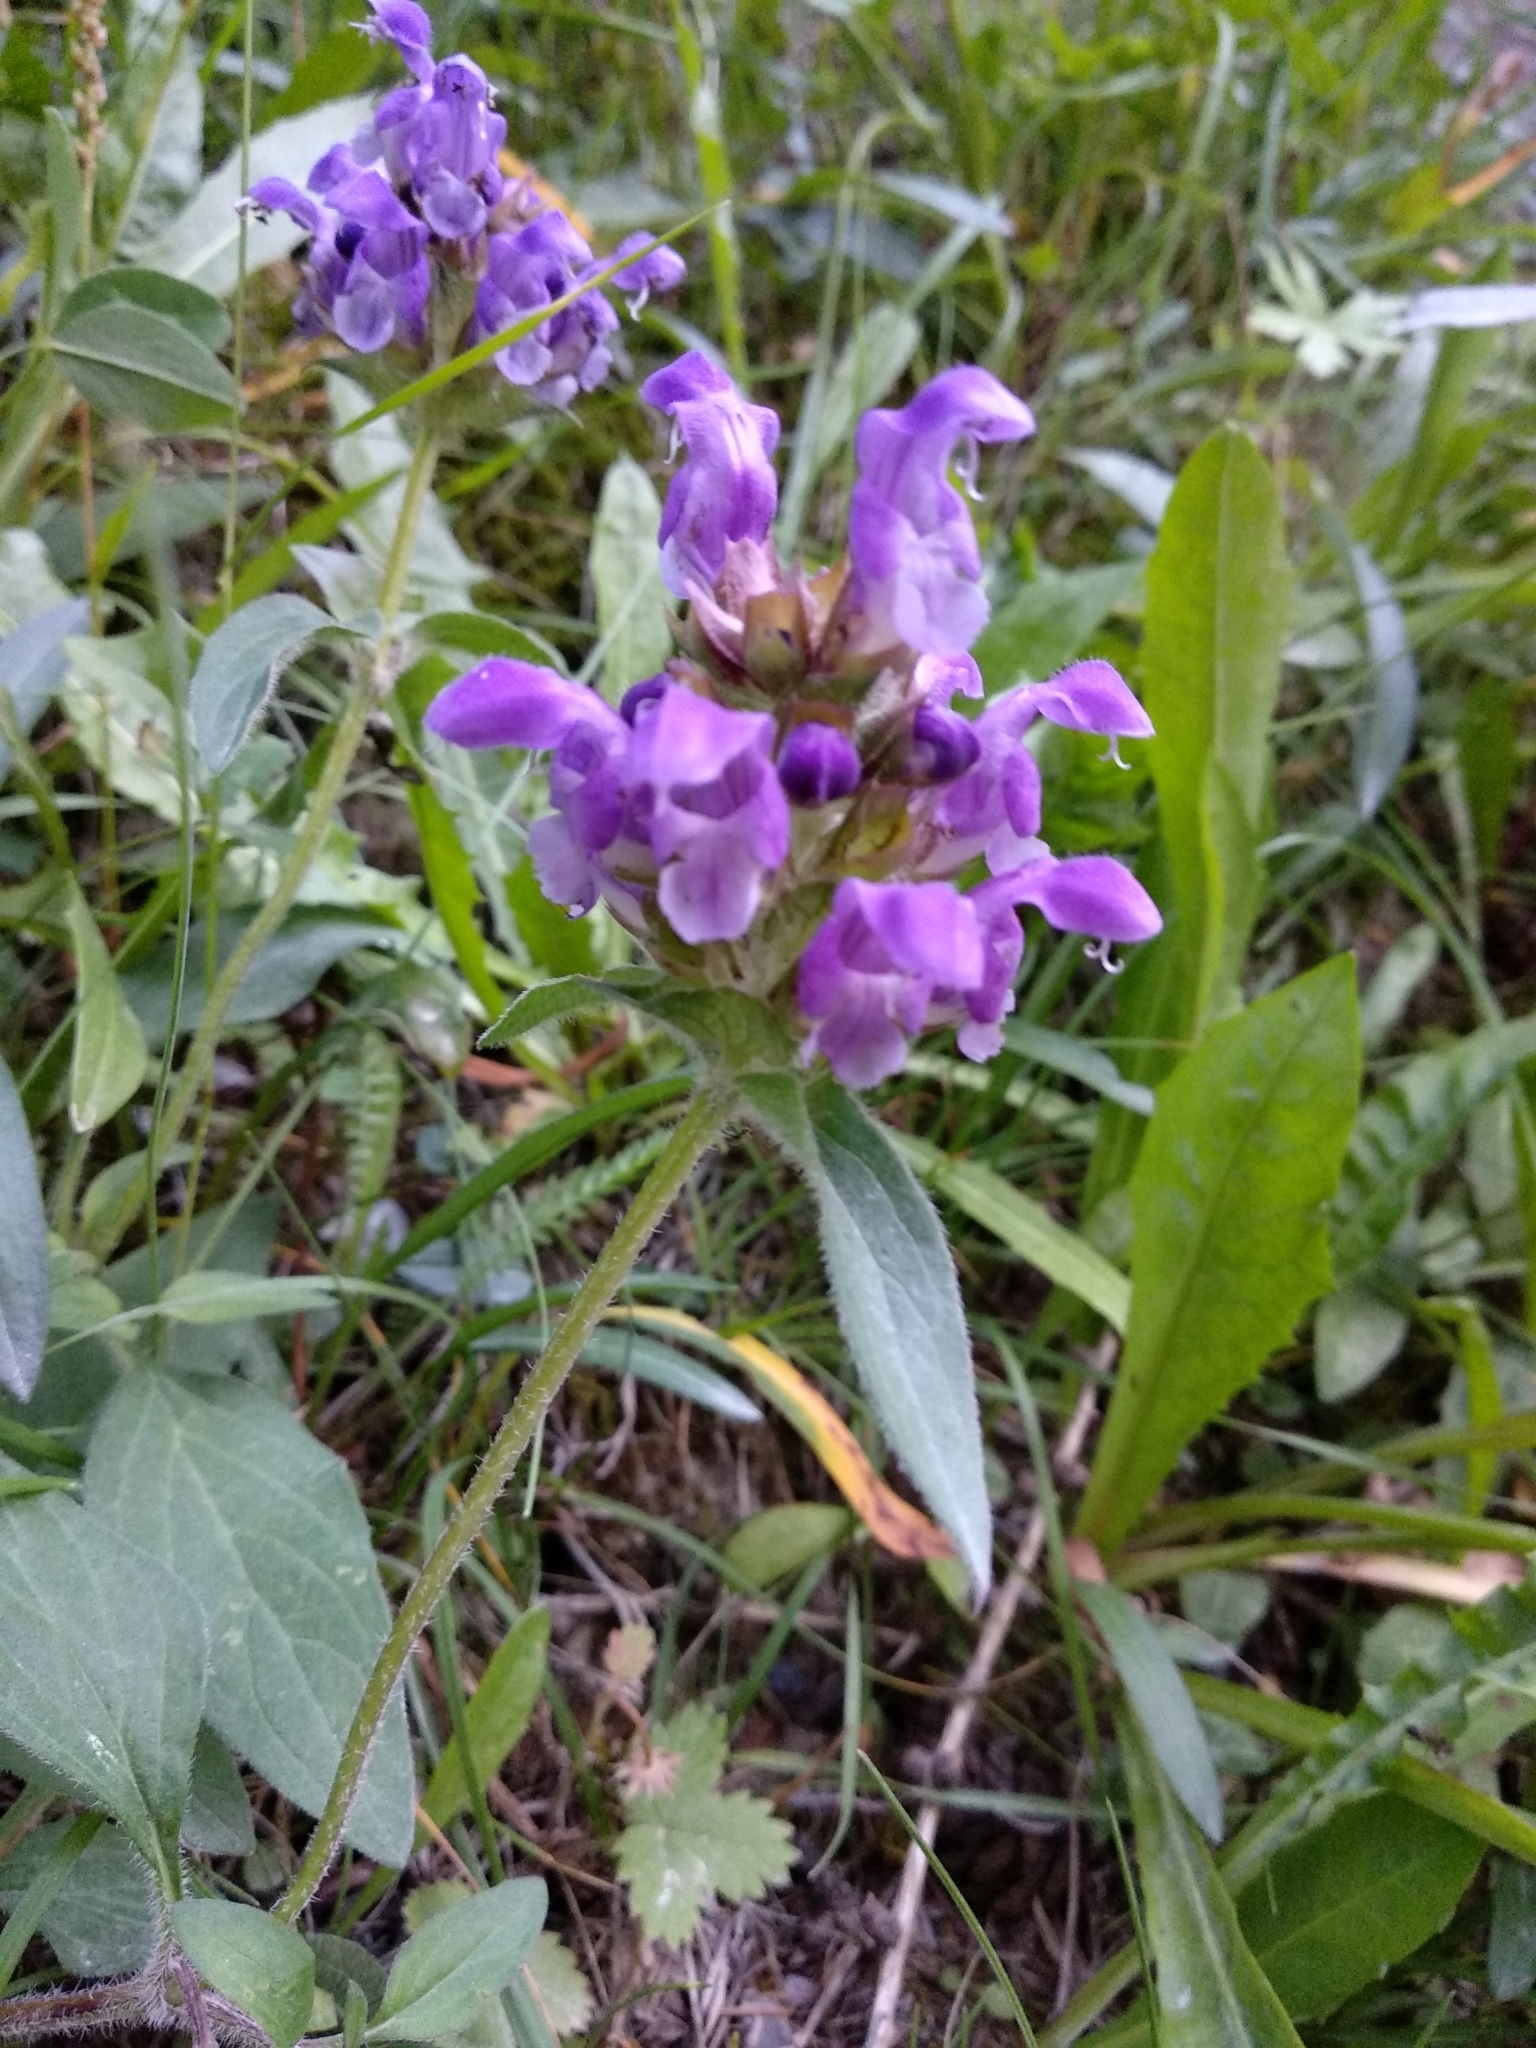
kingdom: Plantae
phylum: Tracheophyta
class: Magnoliopsida
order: Lamiales
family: Lamiaceae
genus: Prunella
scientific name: Prunella grandiflora
